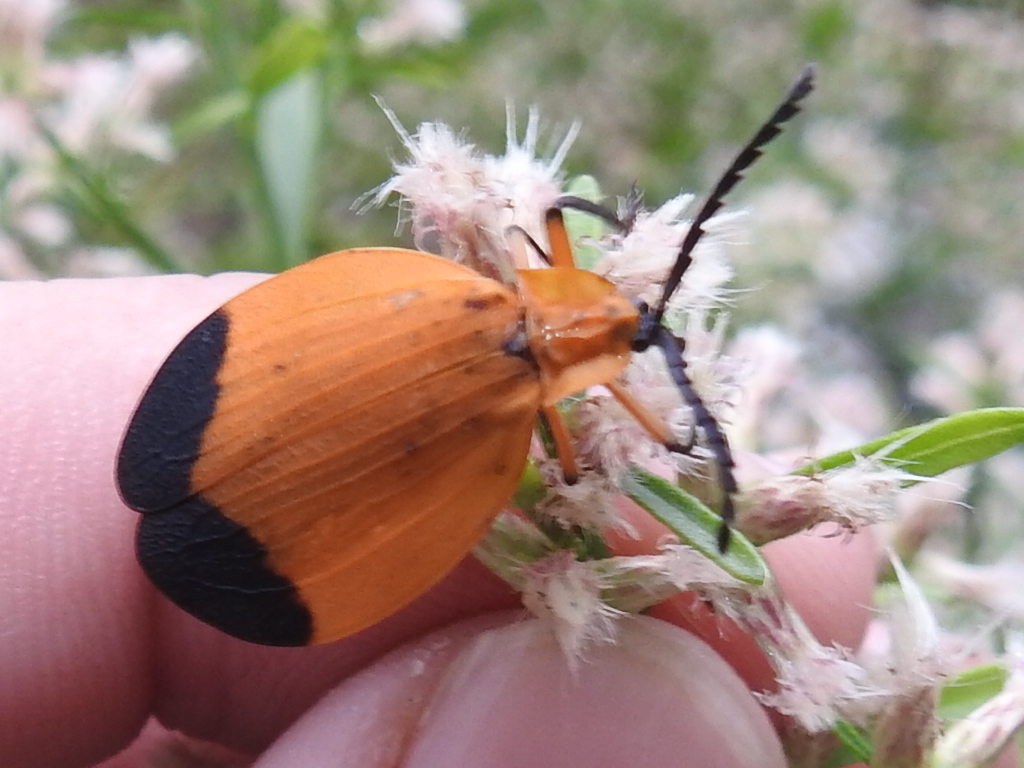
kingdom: Animalia
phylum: Arthropoda
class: Insecta
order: Coleoptera
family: Lycidae
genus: Lycus
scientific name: Lycus arizonensis
